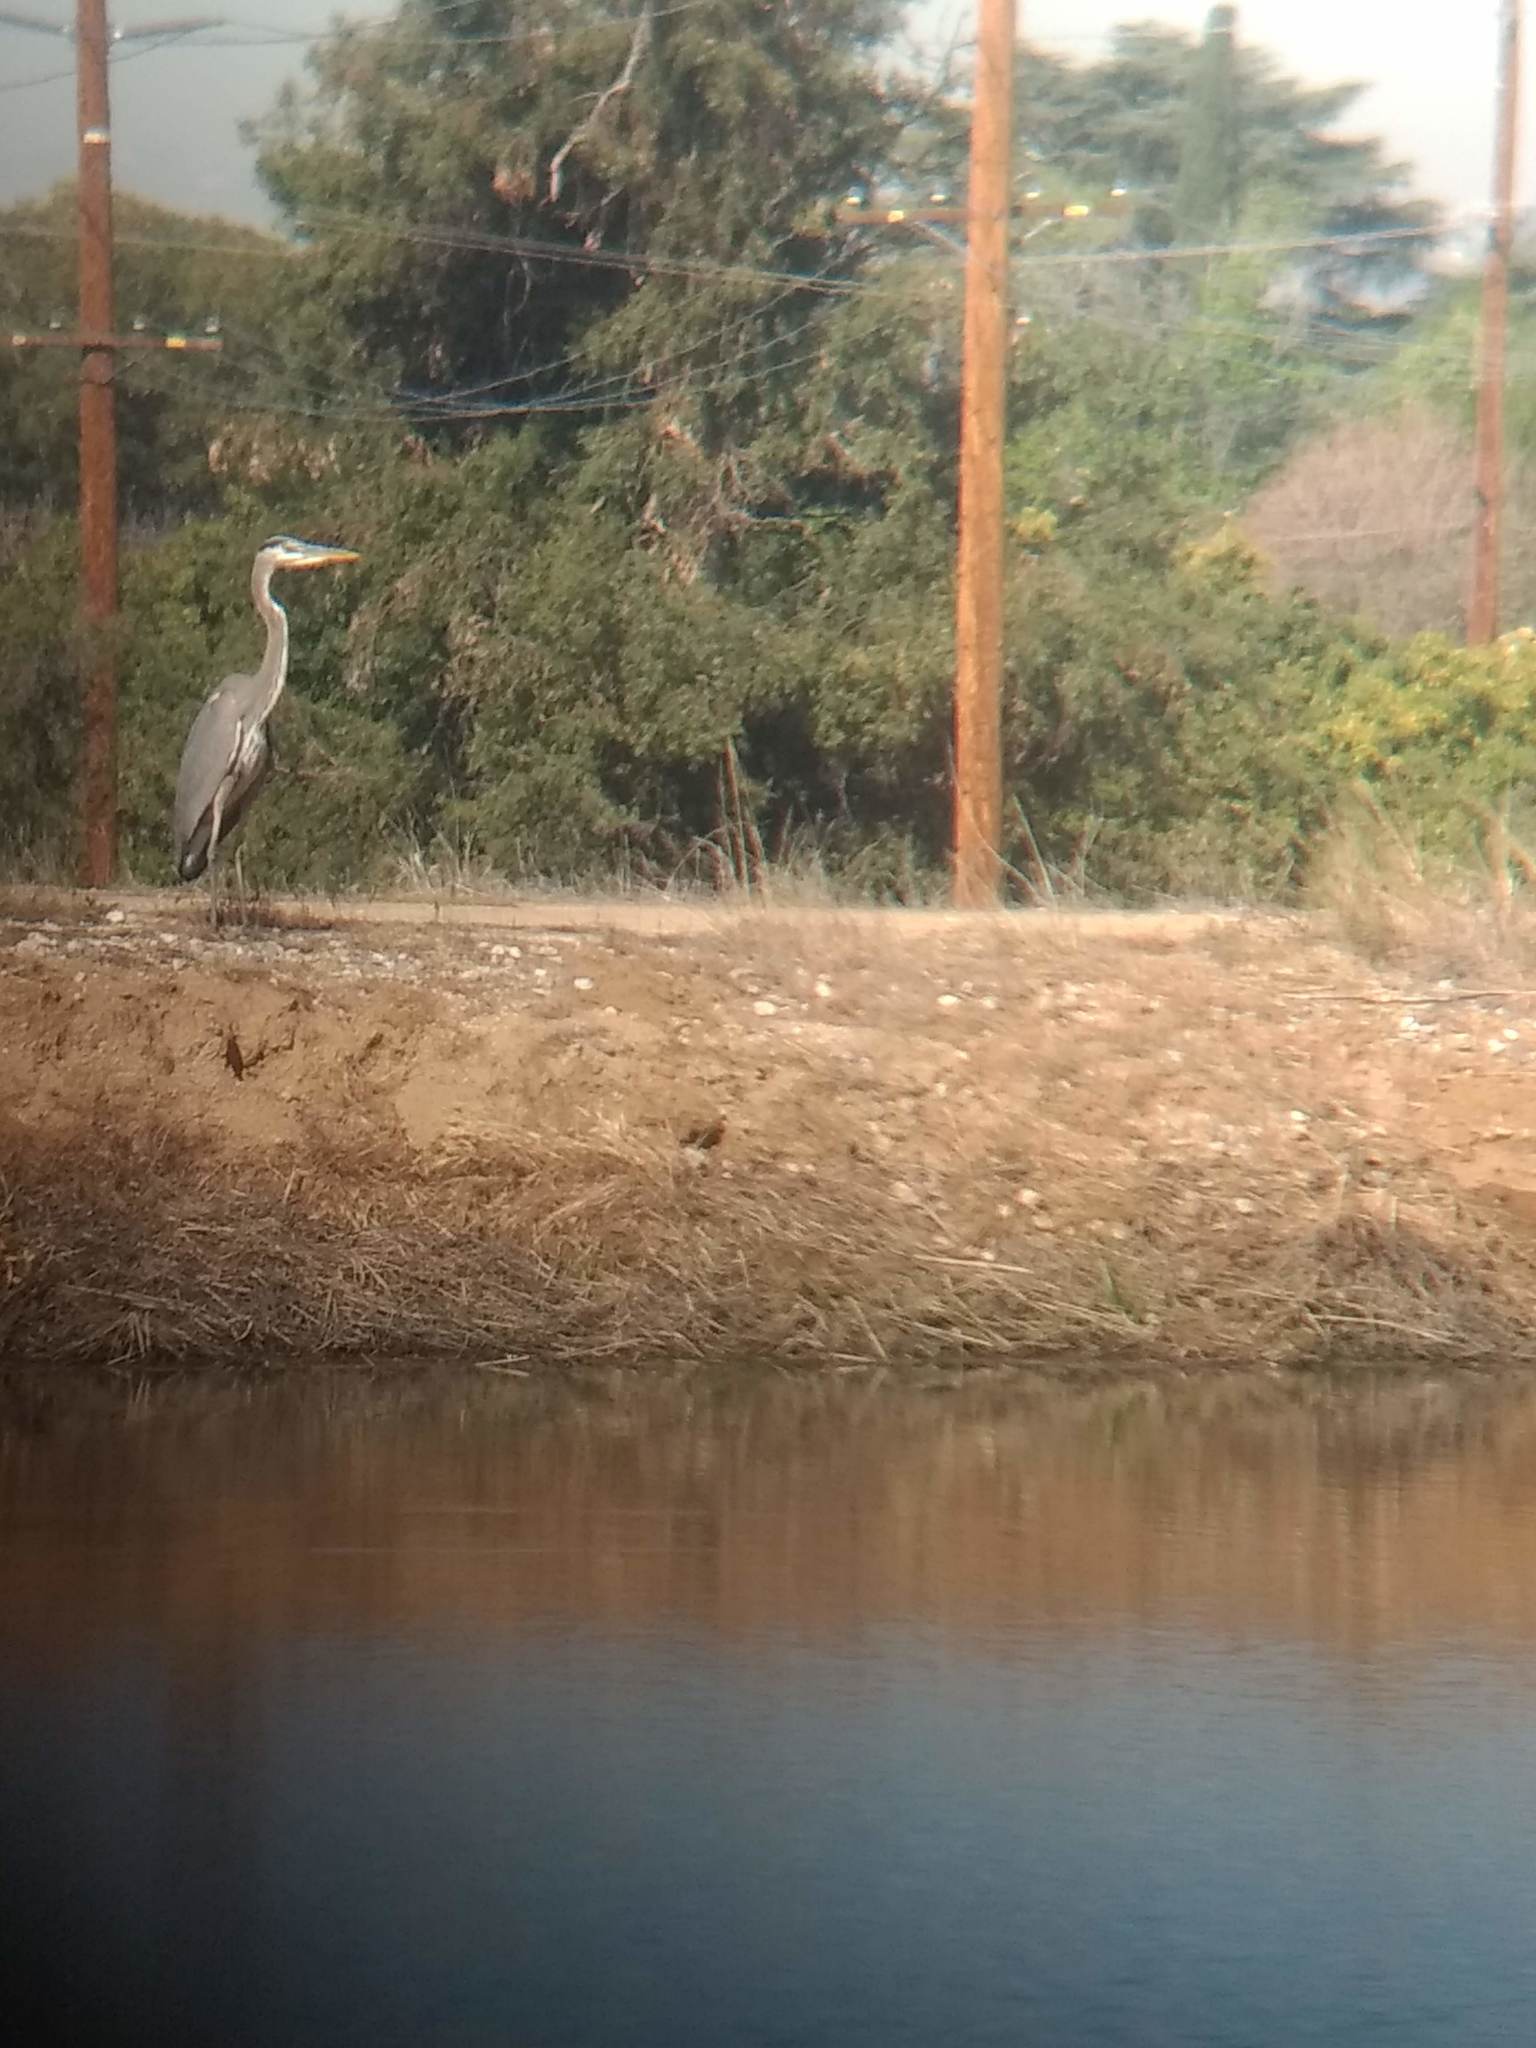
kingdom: Animalia
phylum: Chordata
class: Aves
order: Pelecaniformes
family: Ardeidae
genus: Ardea
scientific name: Ardea herodias
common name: Great blue heron
